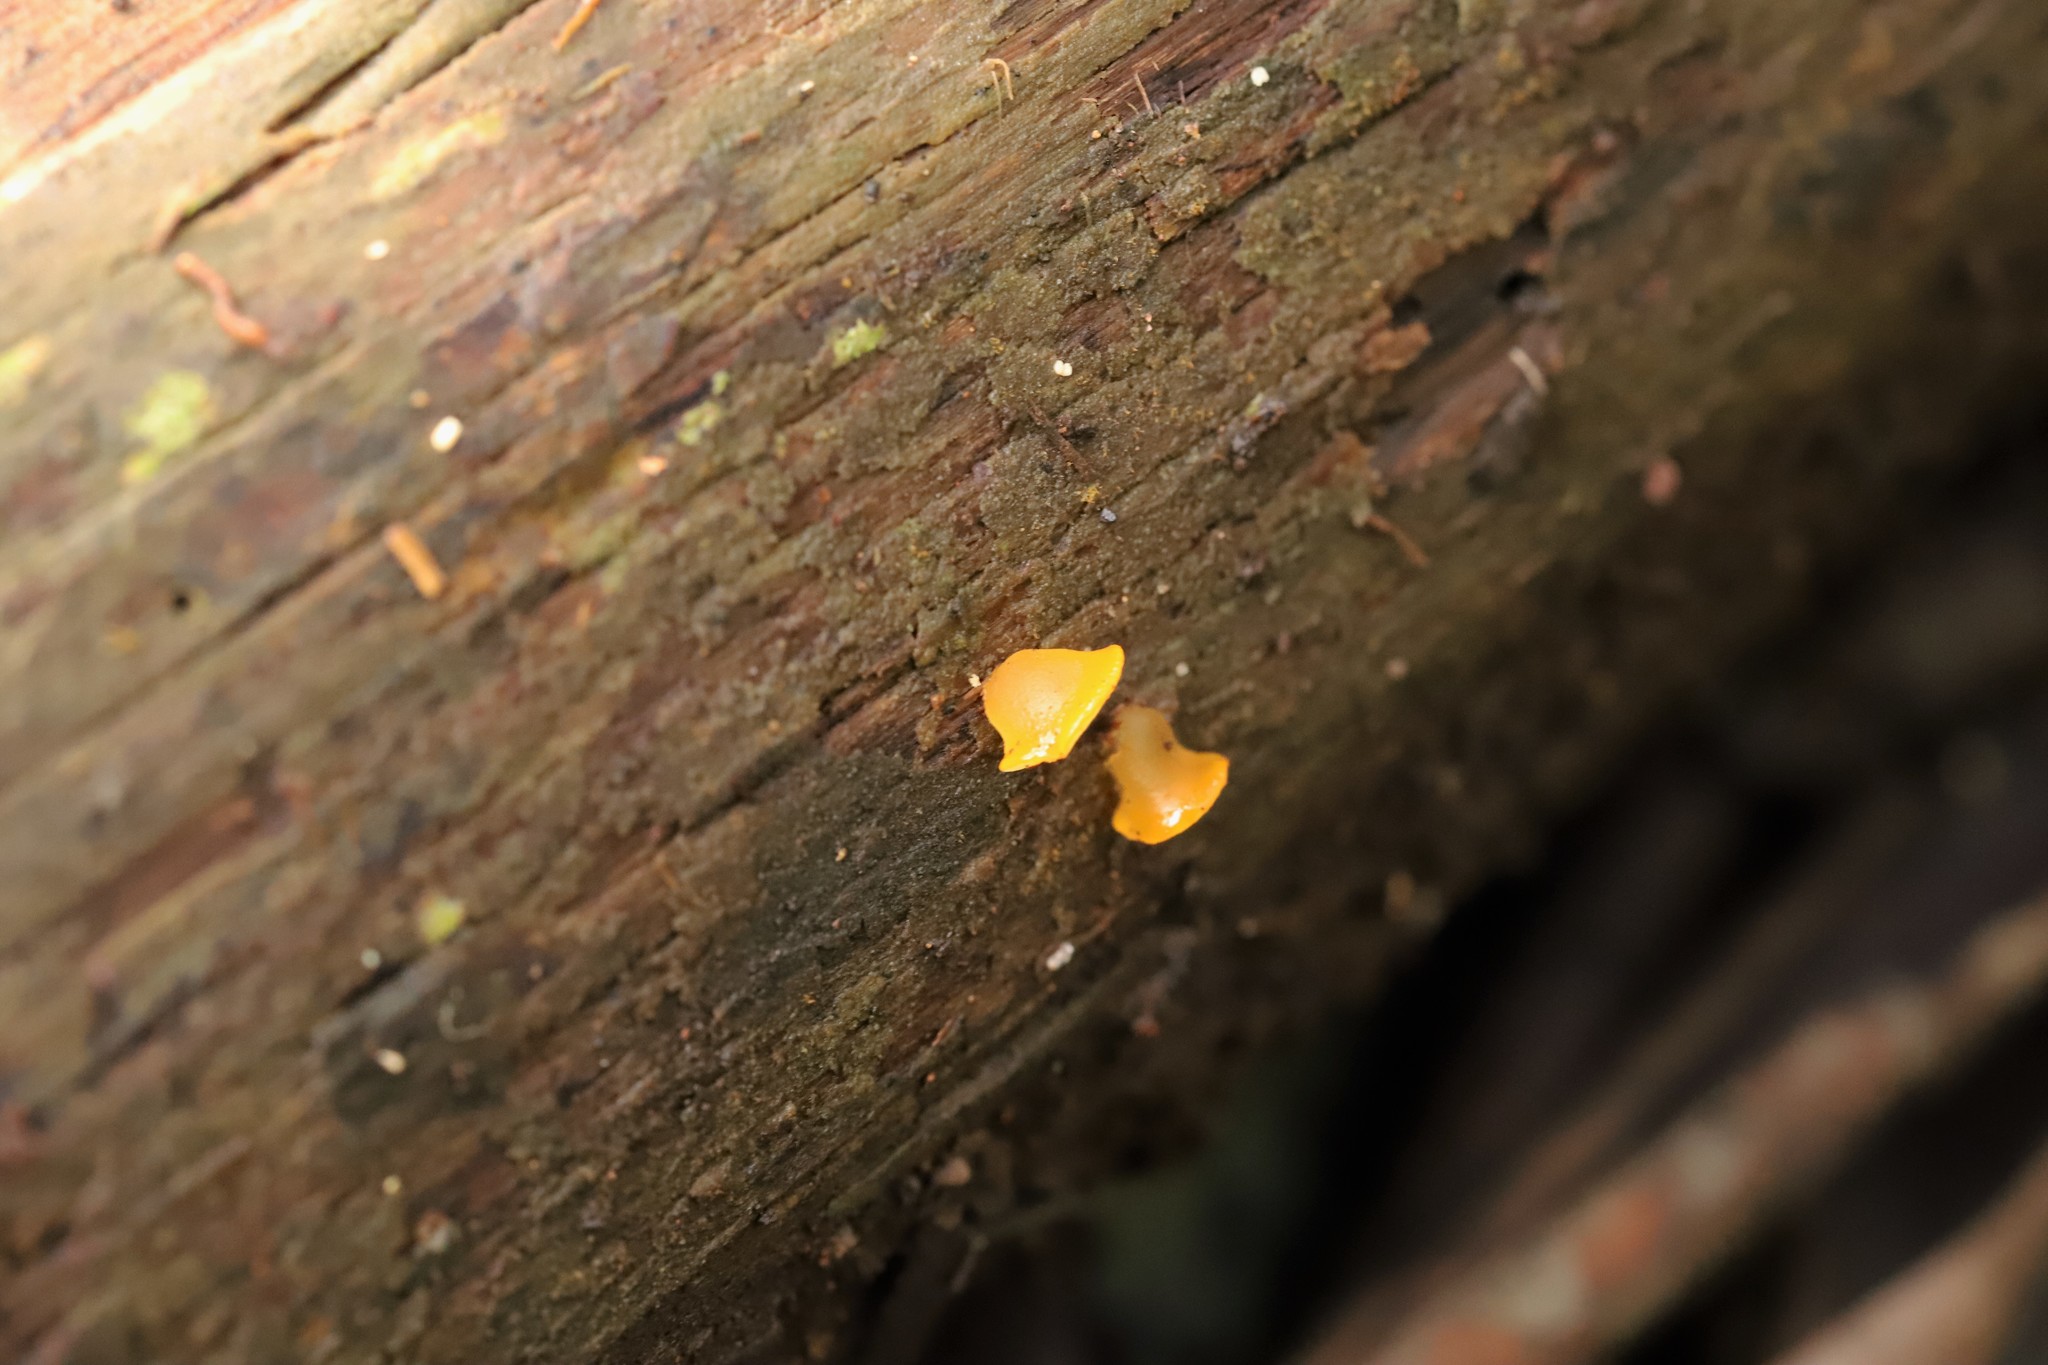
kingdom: Fungi
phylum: Basidiomycota
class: Dacrymycetes
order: Dacrymycetales
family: Dacrymycetaceae
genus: Heterotextus
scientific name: Heterotextus peziziformis
